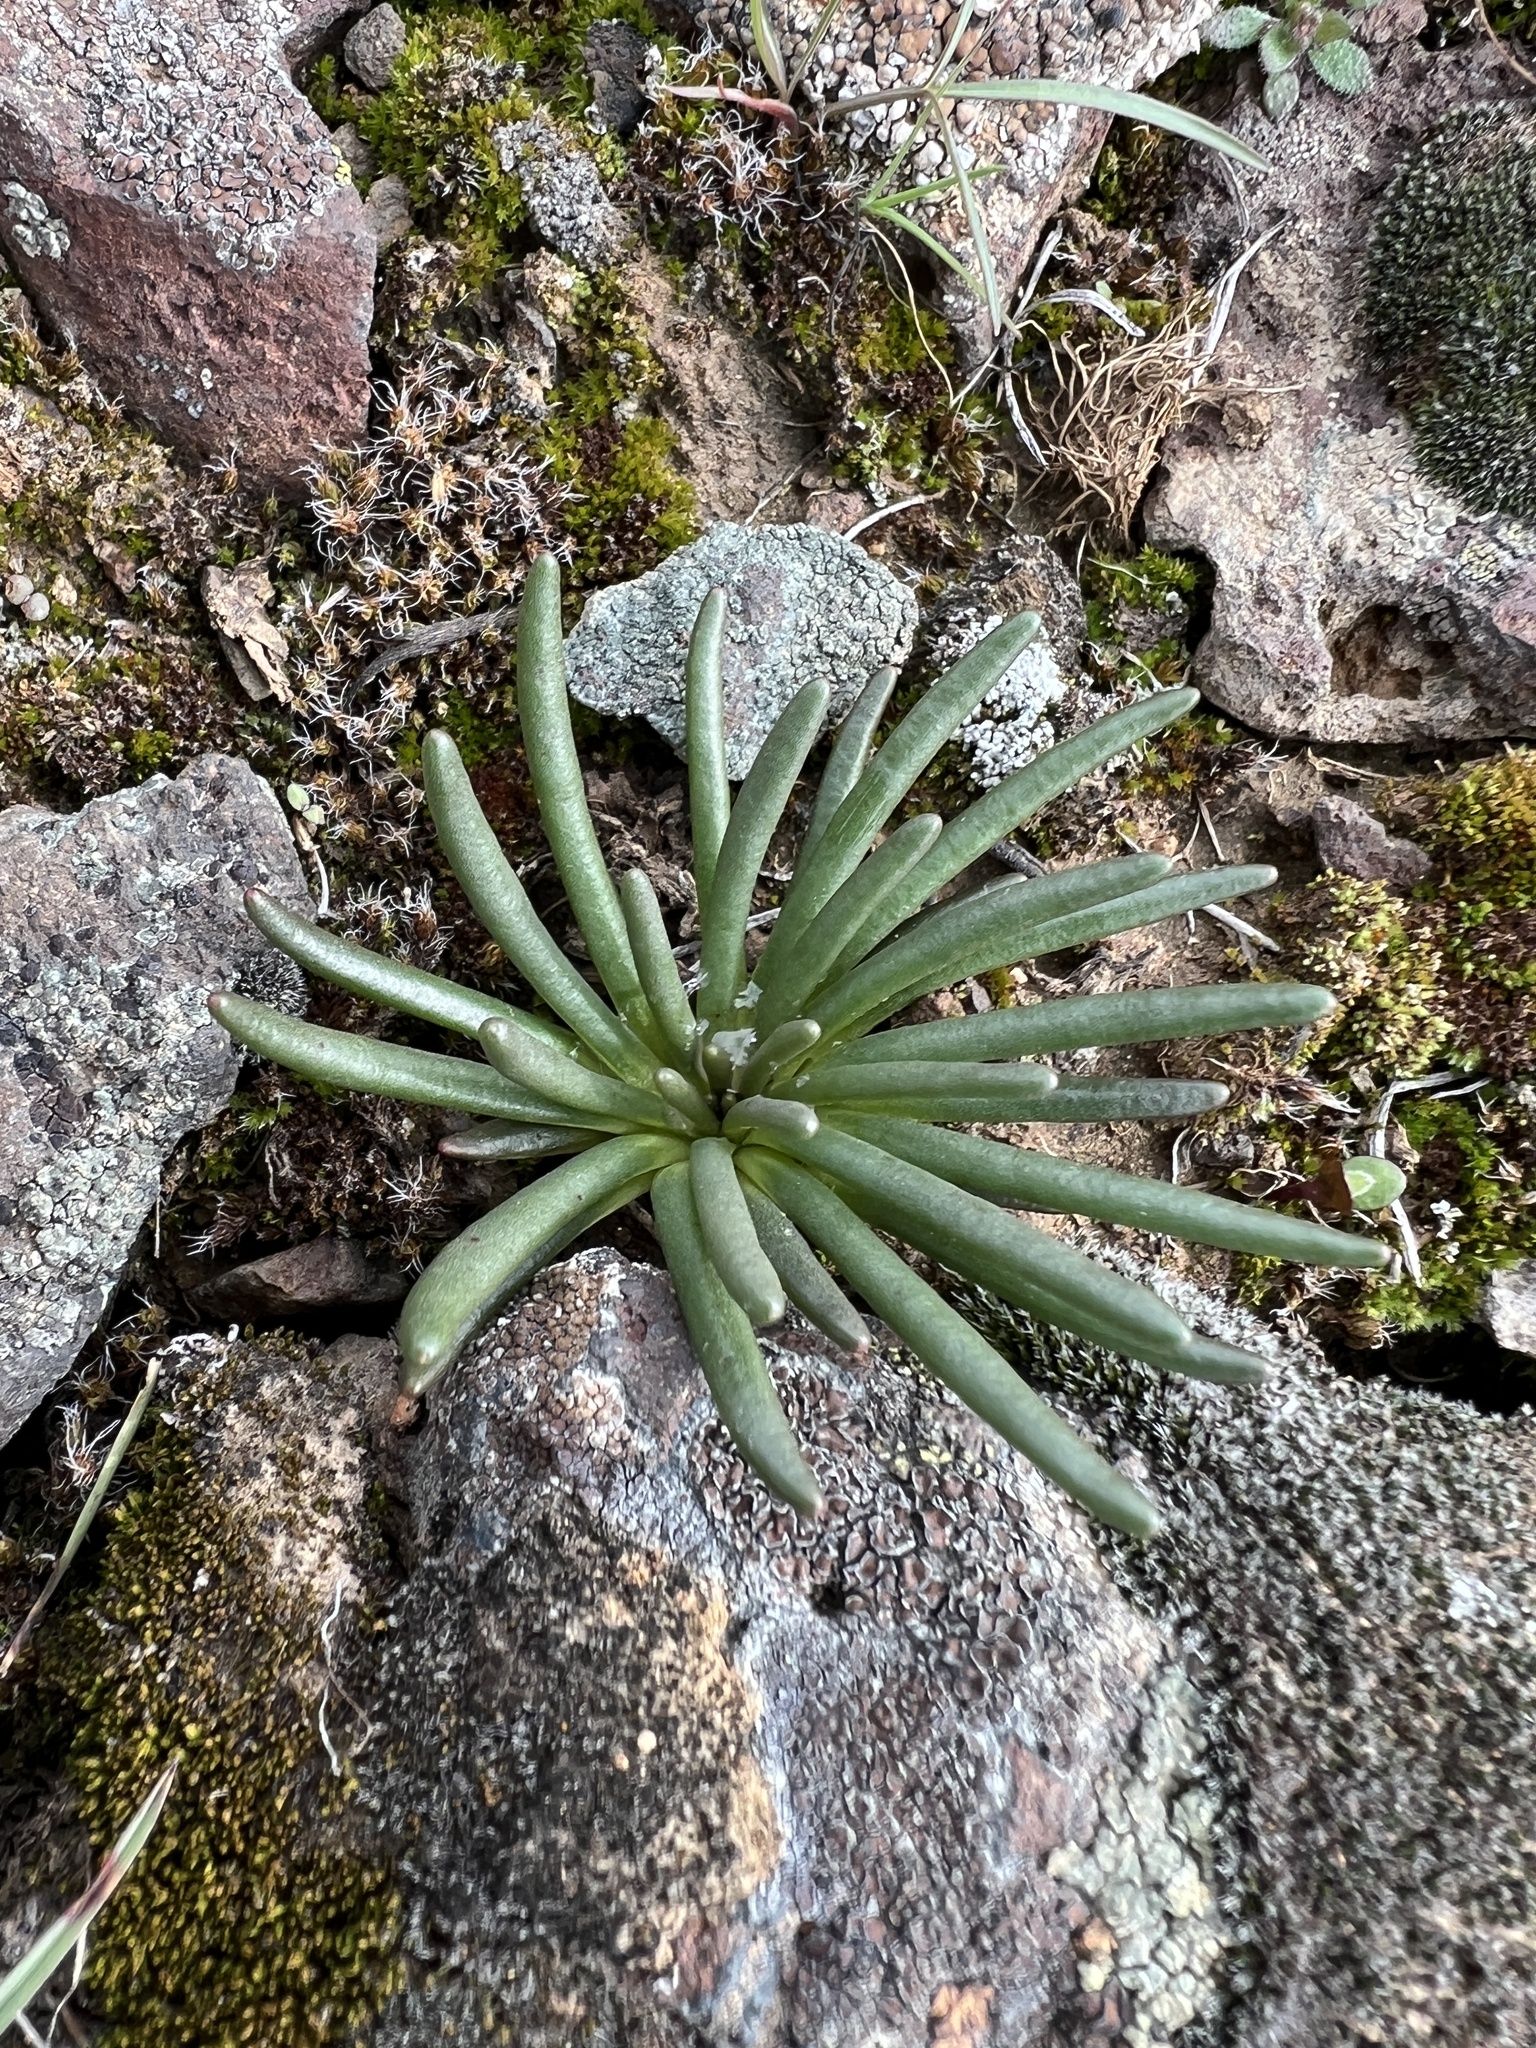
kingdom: Plantae
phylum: Tracheophyta
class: Magnoliopsida
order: Caryophyllales
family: Montiaceae
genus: Lewisia
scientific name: Lewisia rediviva
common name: Bitter-root
